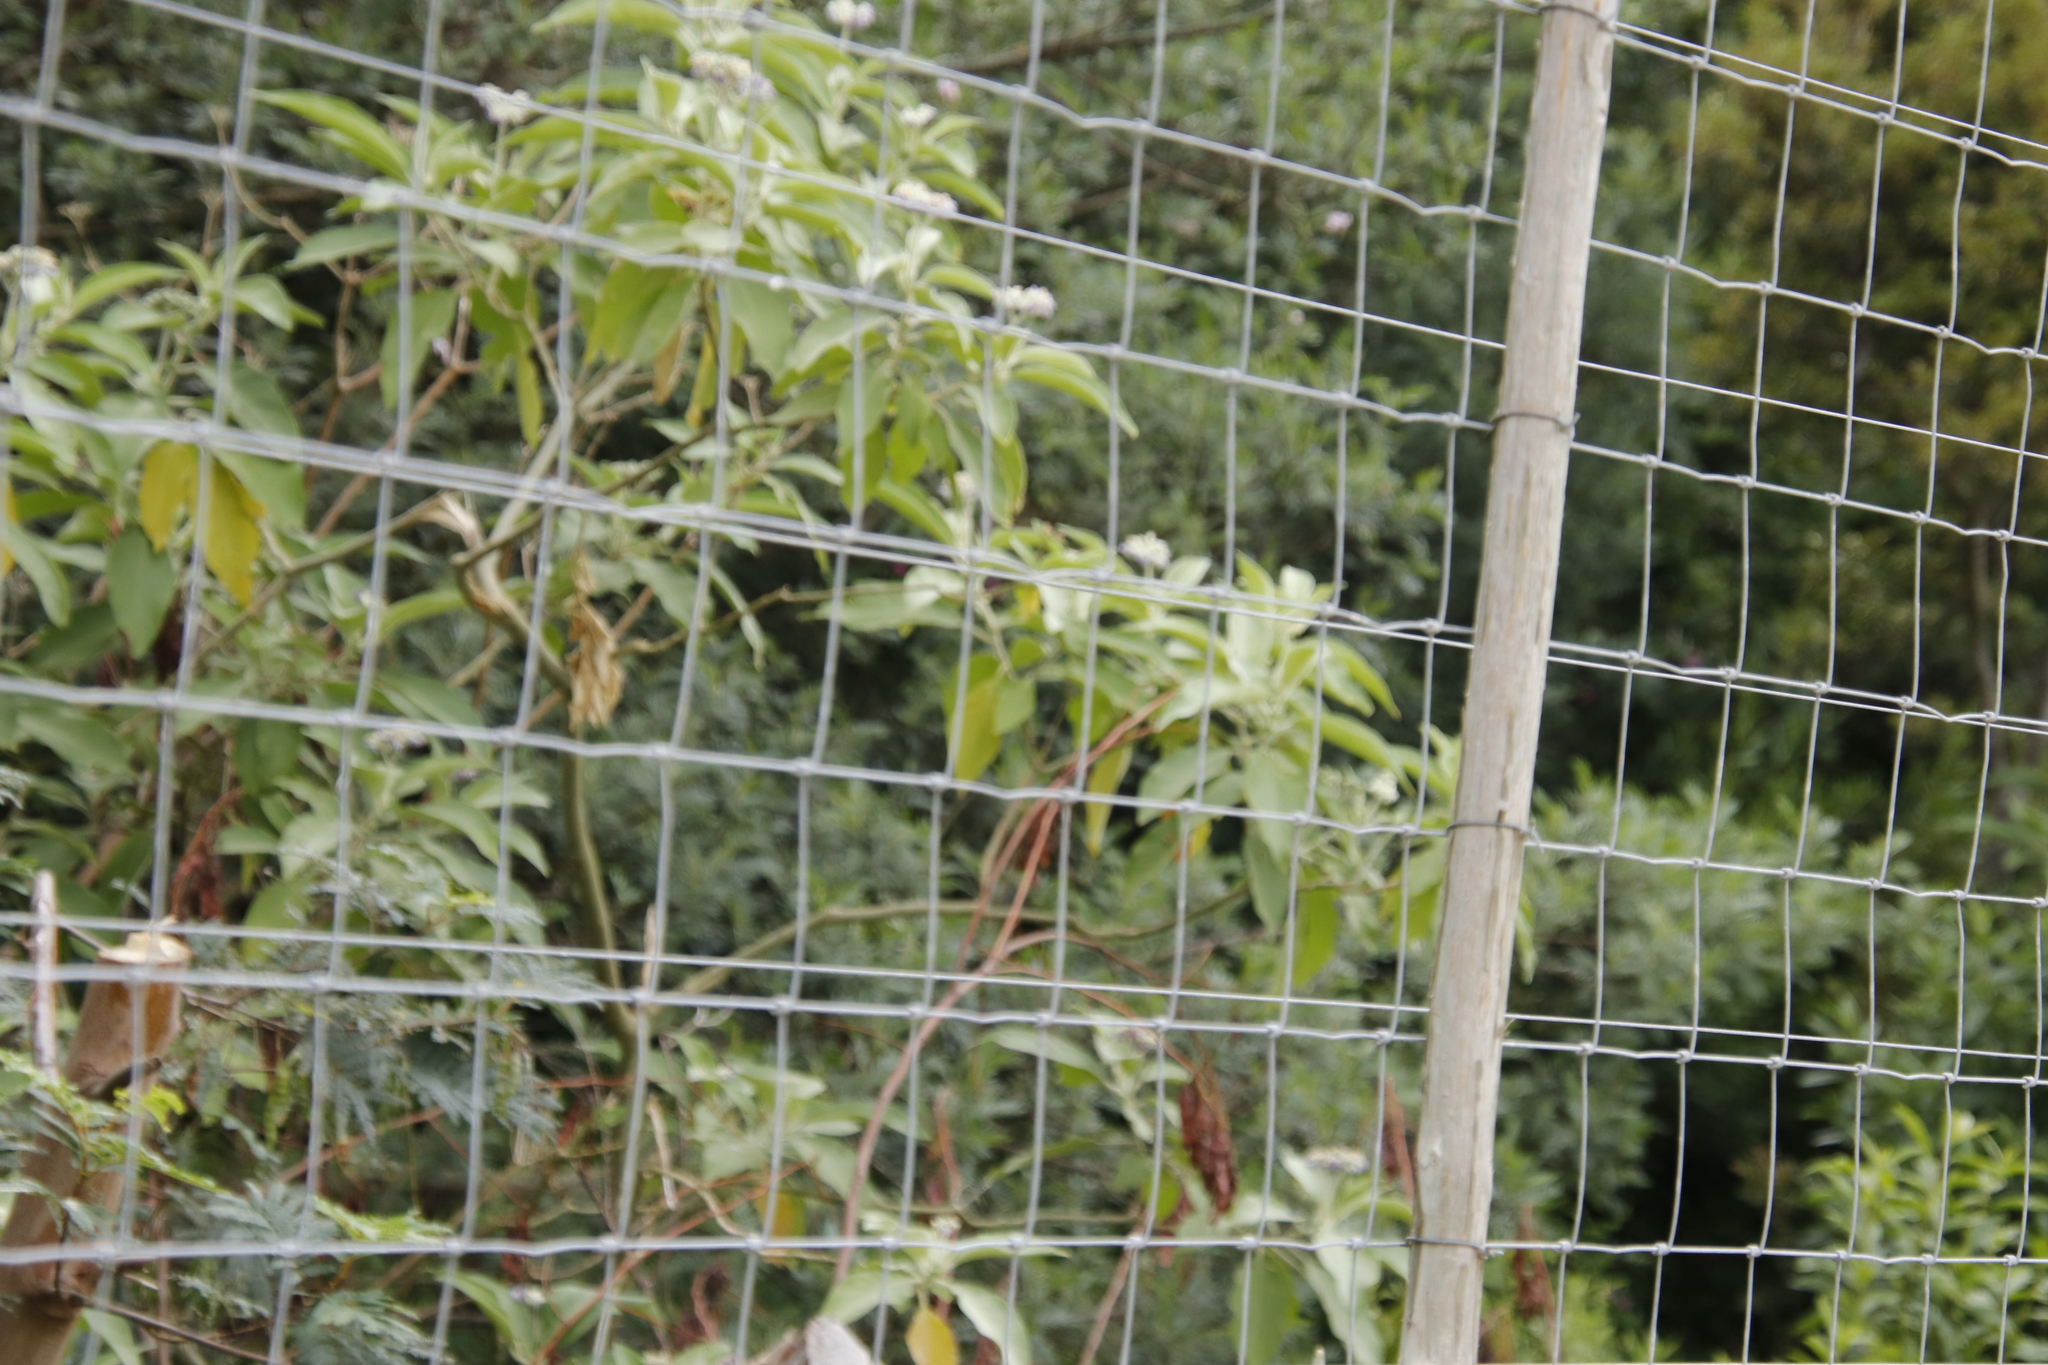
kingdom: Plantae
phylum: Tracheophyta
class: Magnoliopsida
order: Solanales
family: Solanaceae
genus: Solanum
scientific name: Solanum mauritianum
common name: Earleaf nightshade
